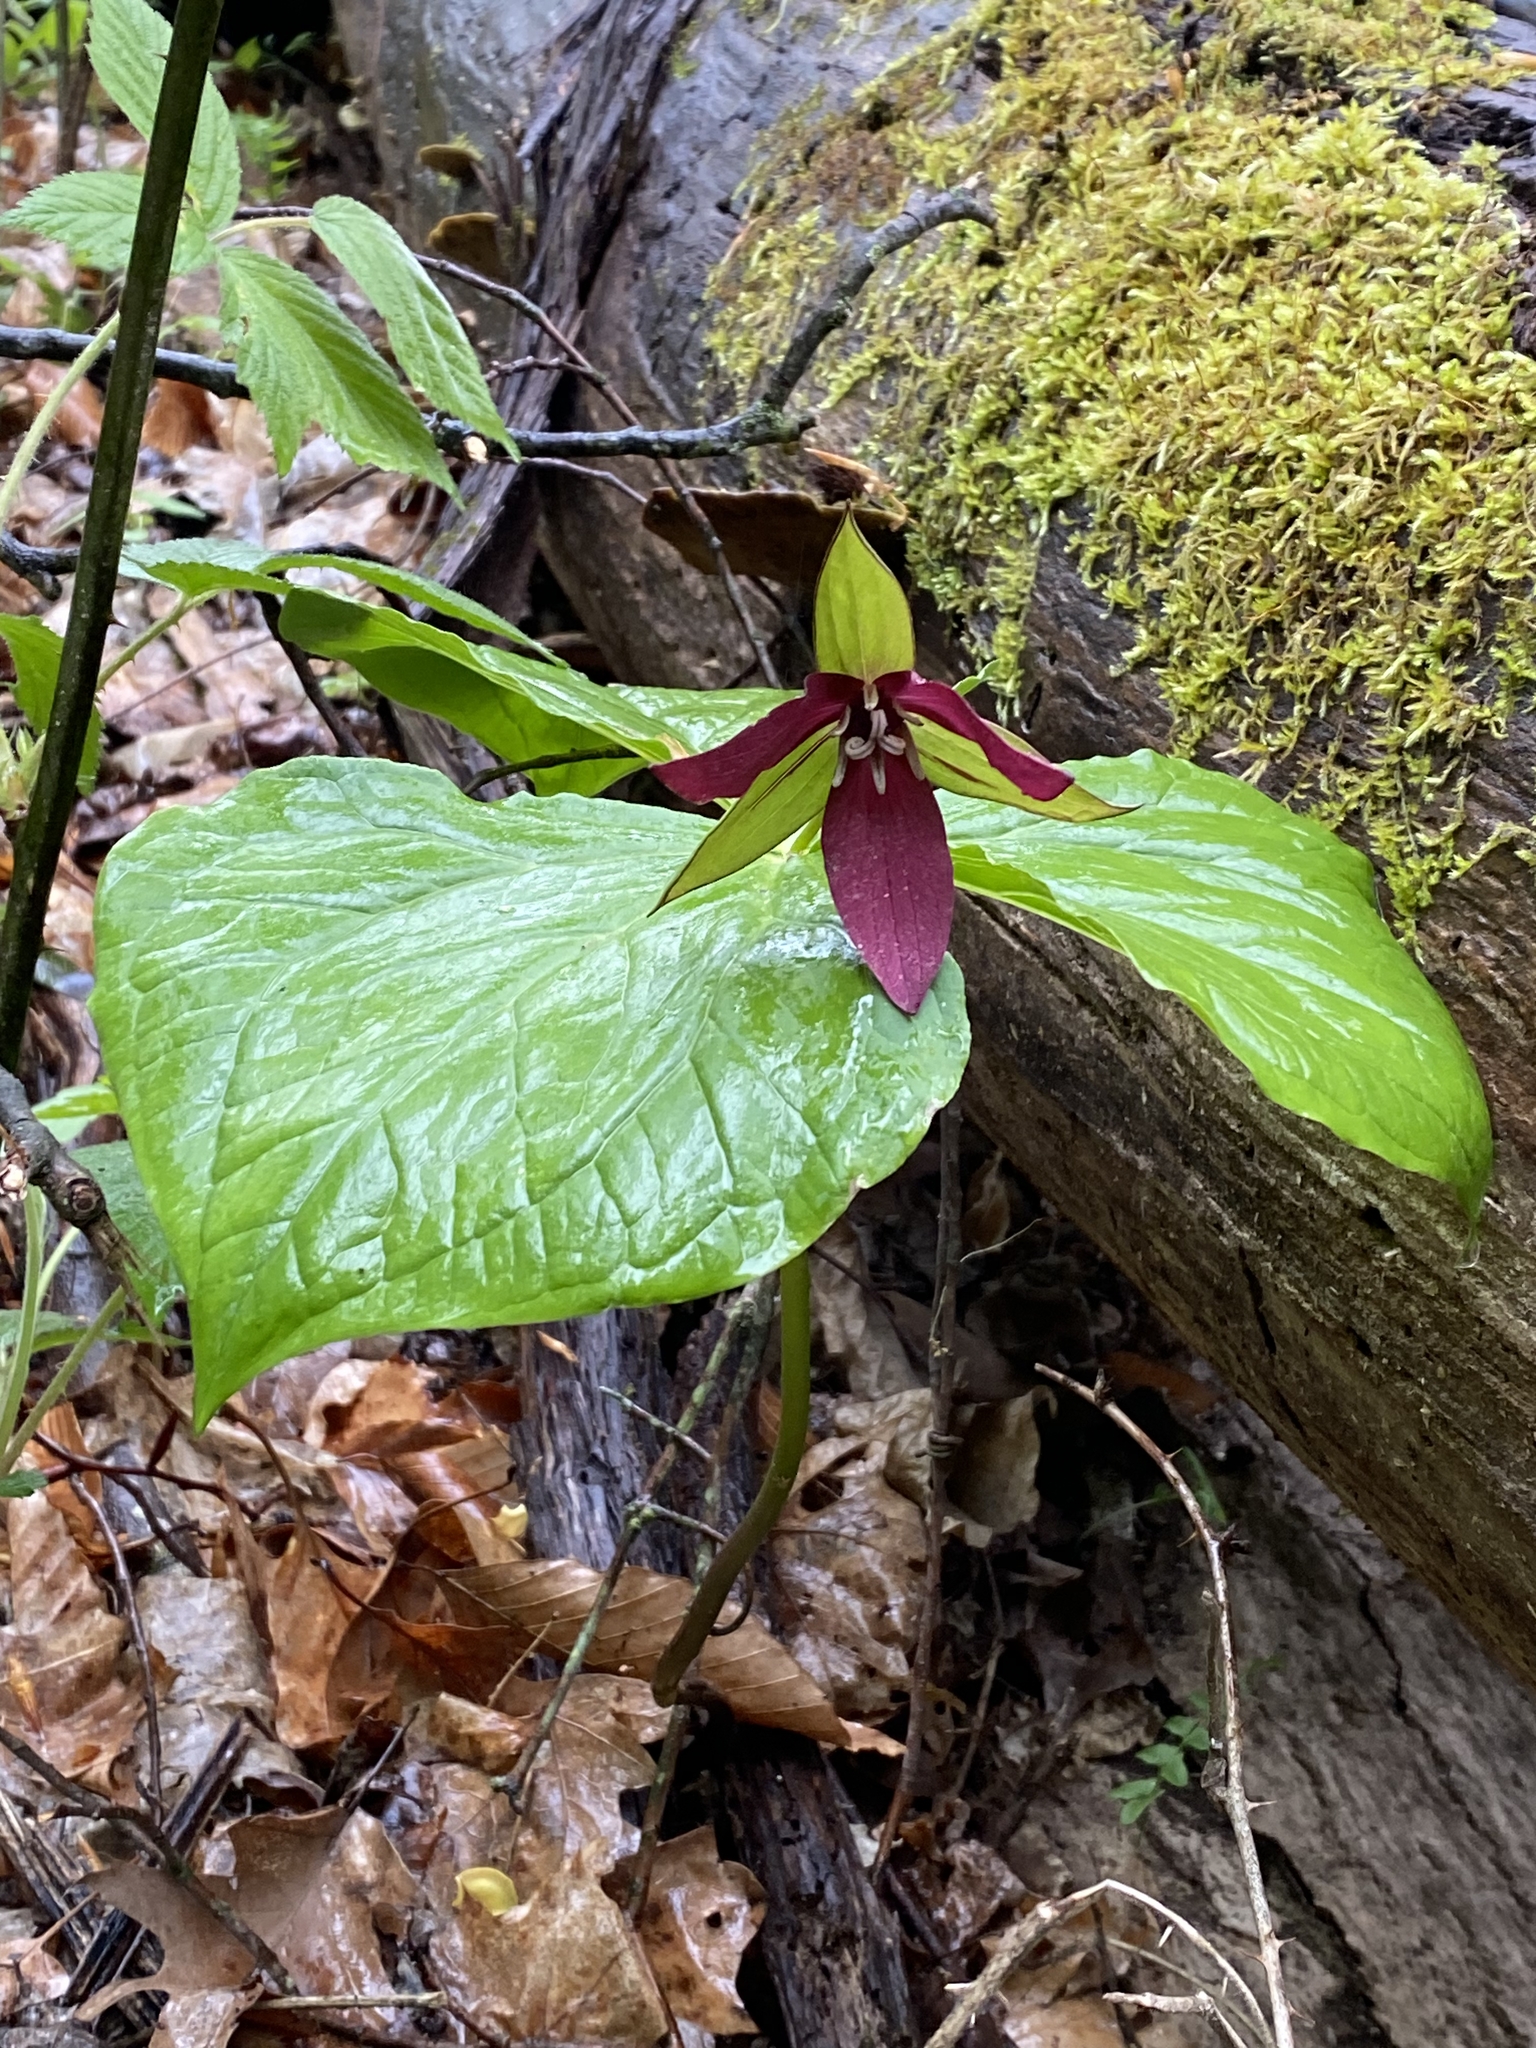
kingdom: Plantae
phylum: Tracheophyta
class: Liliopsida
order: Liliales
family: Melanthiaceae
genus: Trillium
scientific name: Trillium erectum
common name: Purple trillium
